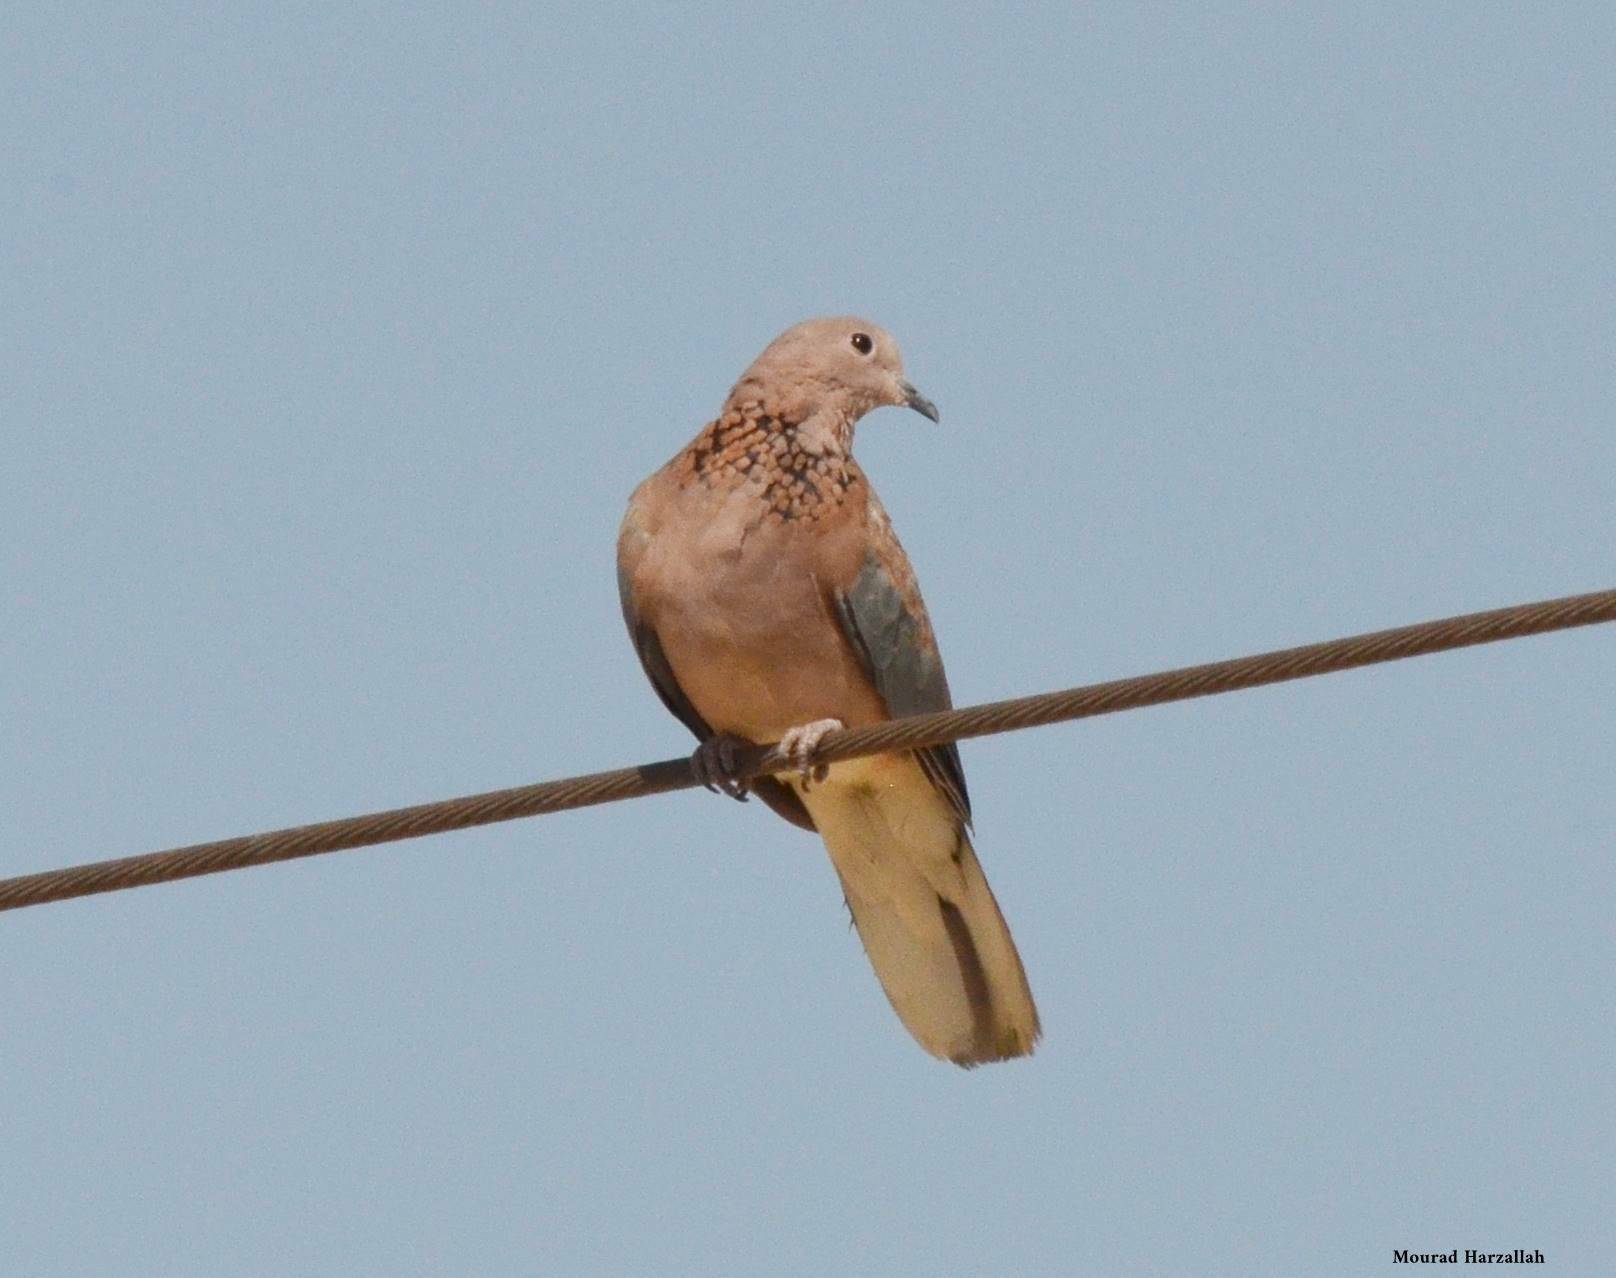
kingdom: Animalia
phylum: Chordata
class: Aves
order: Columbiformes
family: Columbidae
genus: Spilopelia
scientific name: Spilopelia senegalensis
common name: Laughing dove
